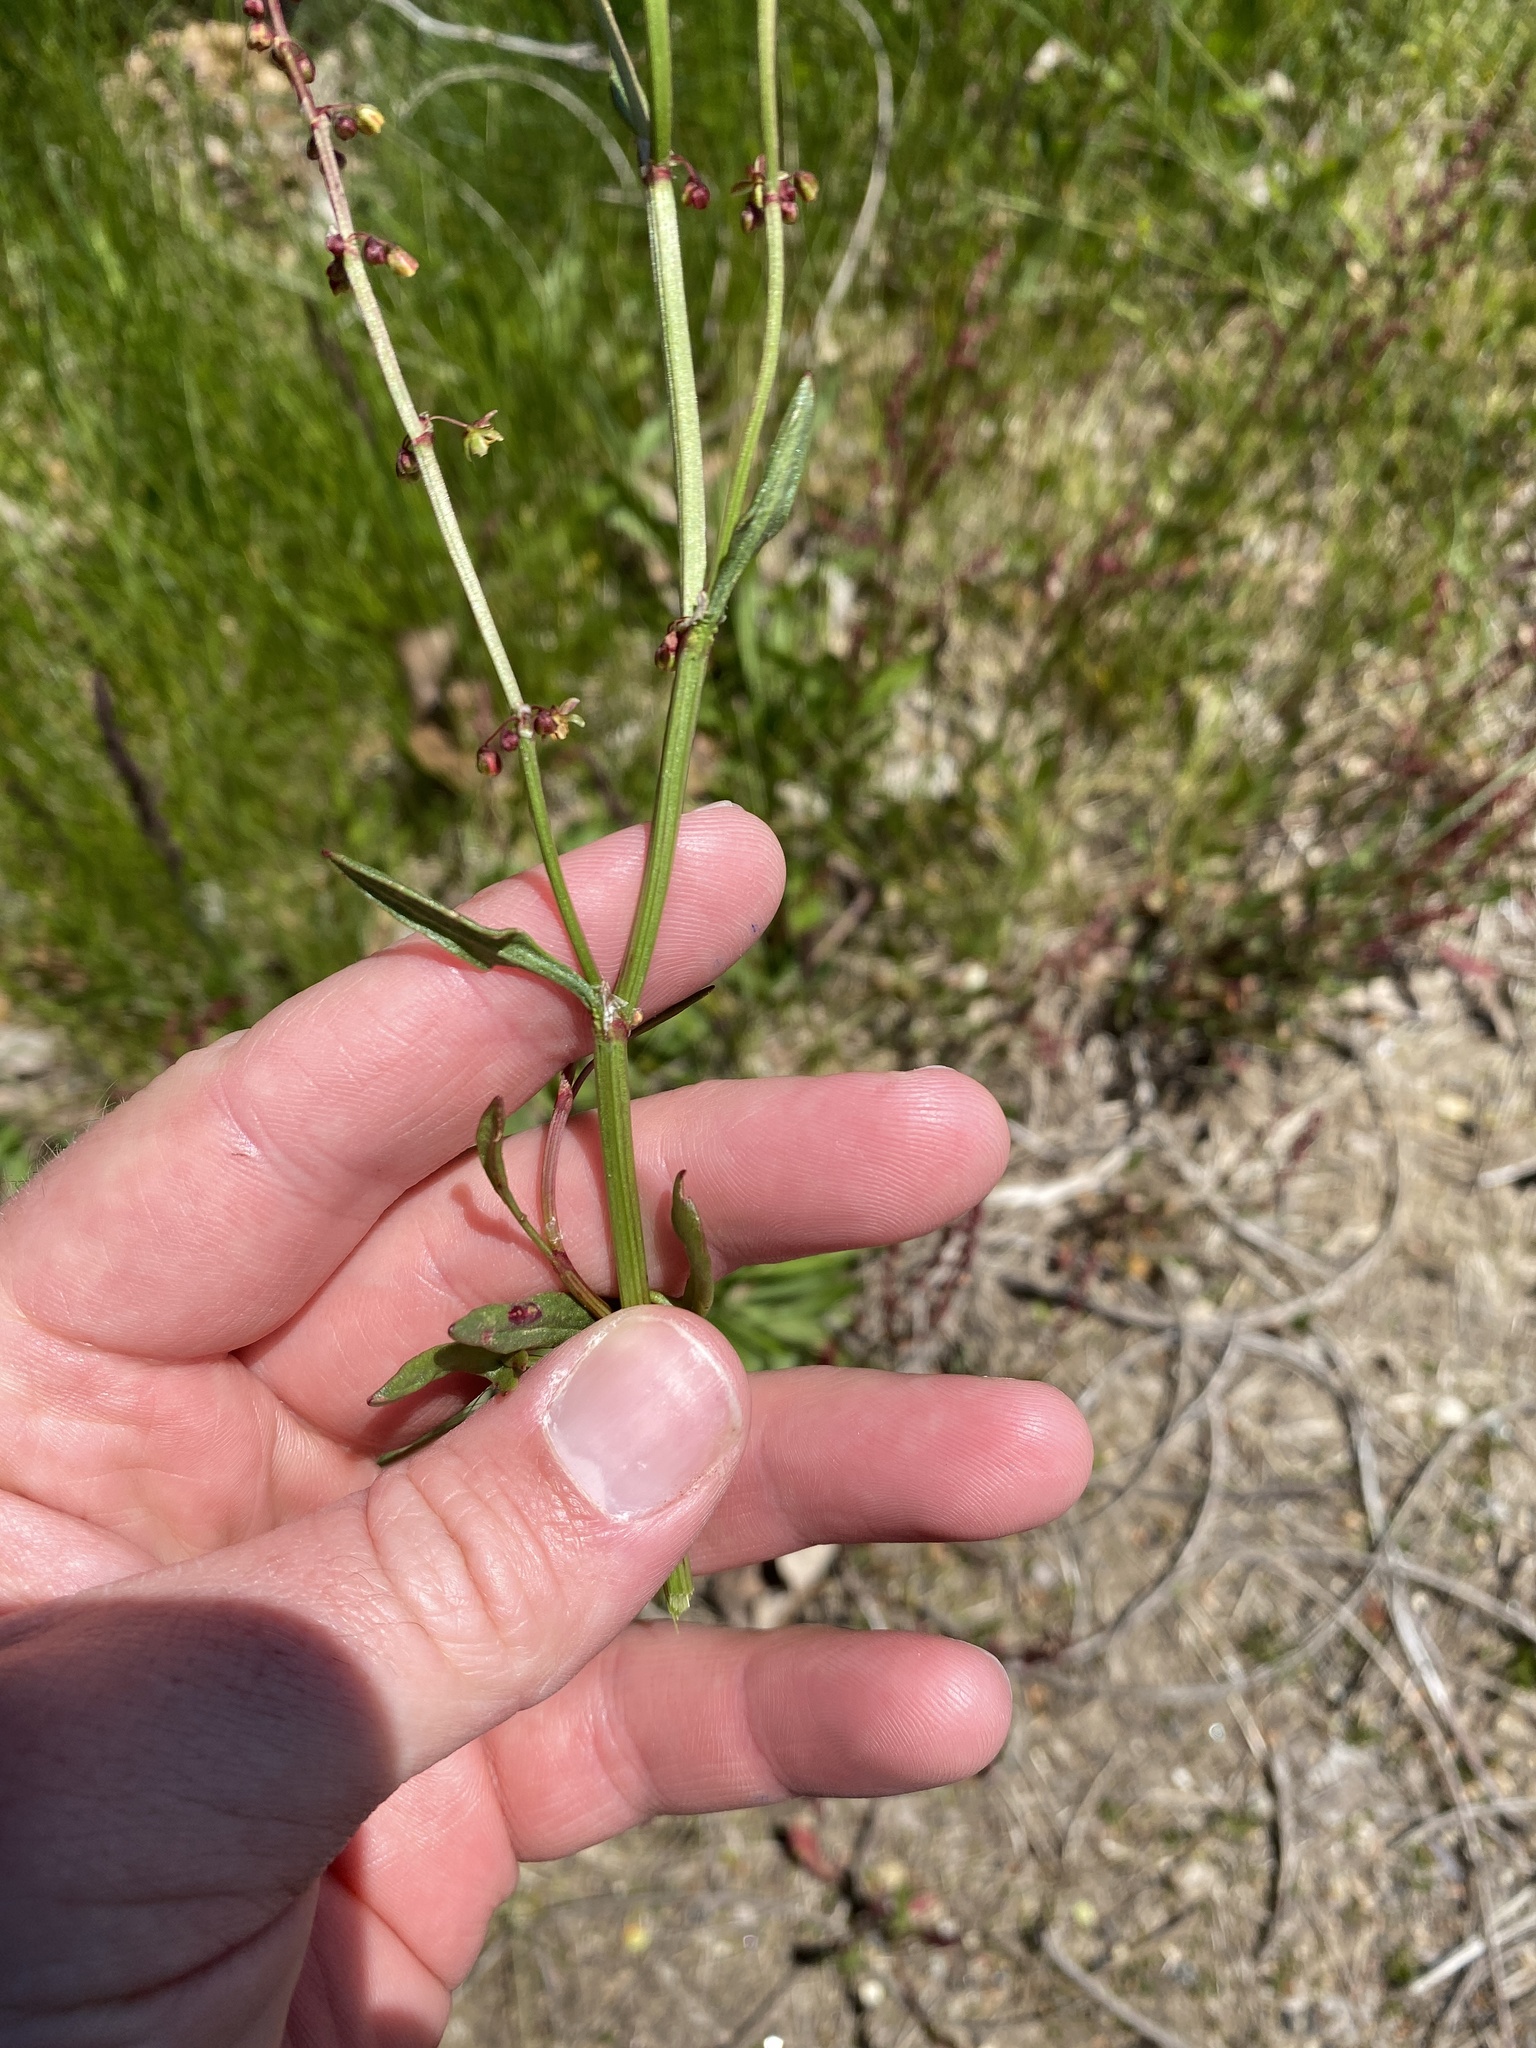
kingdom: Plantae
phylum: Tracheophyta
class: Magnoliopsida
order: Caryophyllales
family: Polygonaceae
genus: Rumex
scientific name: Rumex acetosella
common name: Common sheep sorrel
